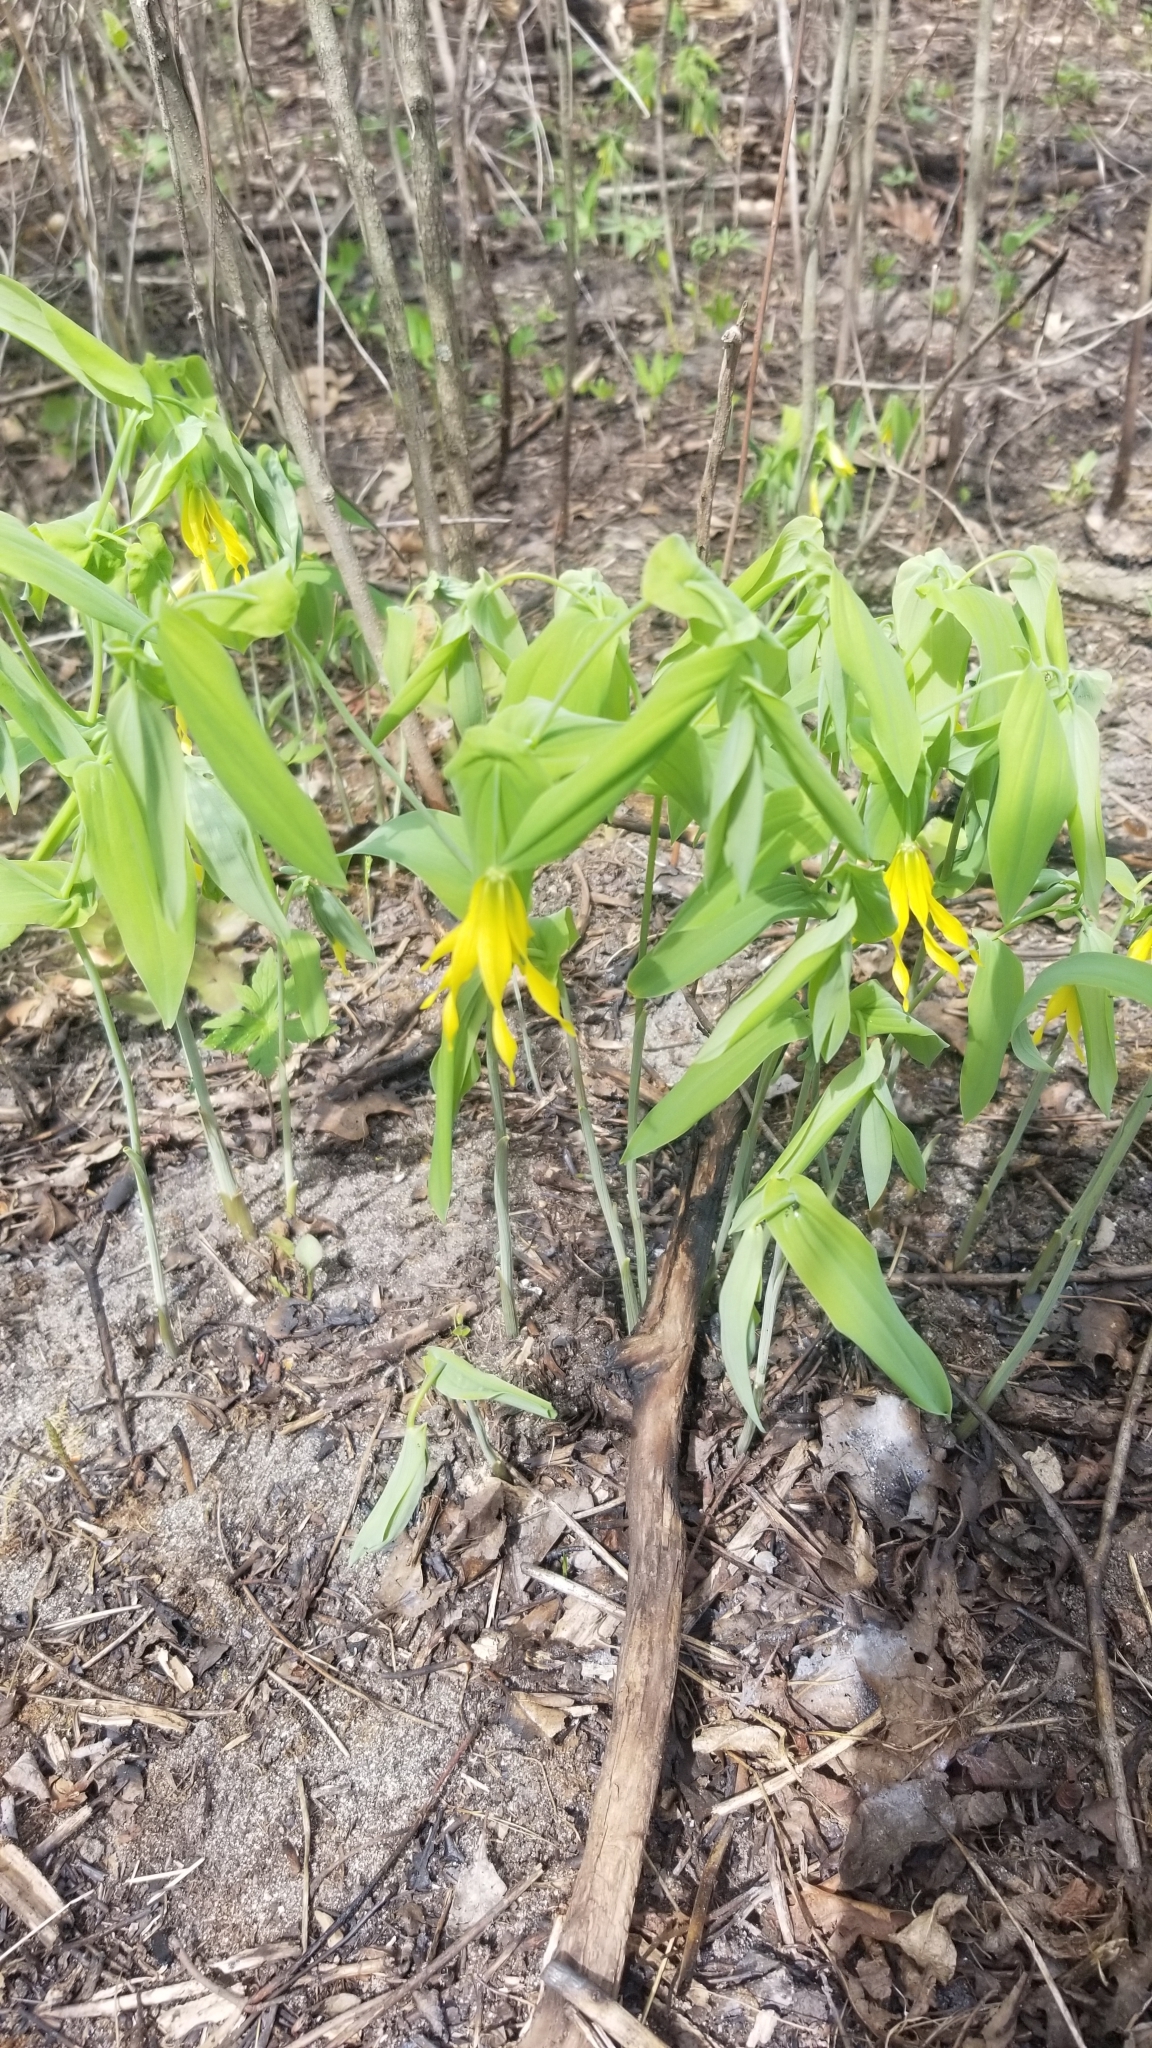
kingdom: Plantae
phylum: Tracheophyta
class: Liliopsida
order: Liliales
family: Colchicaceae
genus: Uvularia
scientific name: Uvularia grandiflora
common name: Bellwort
